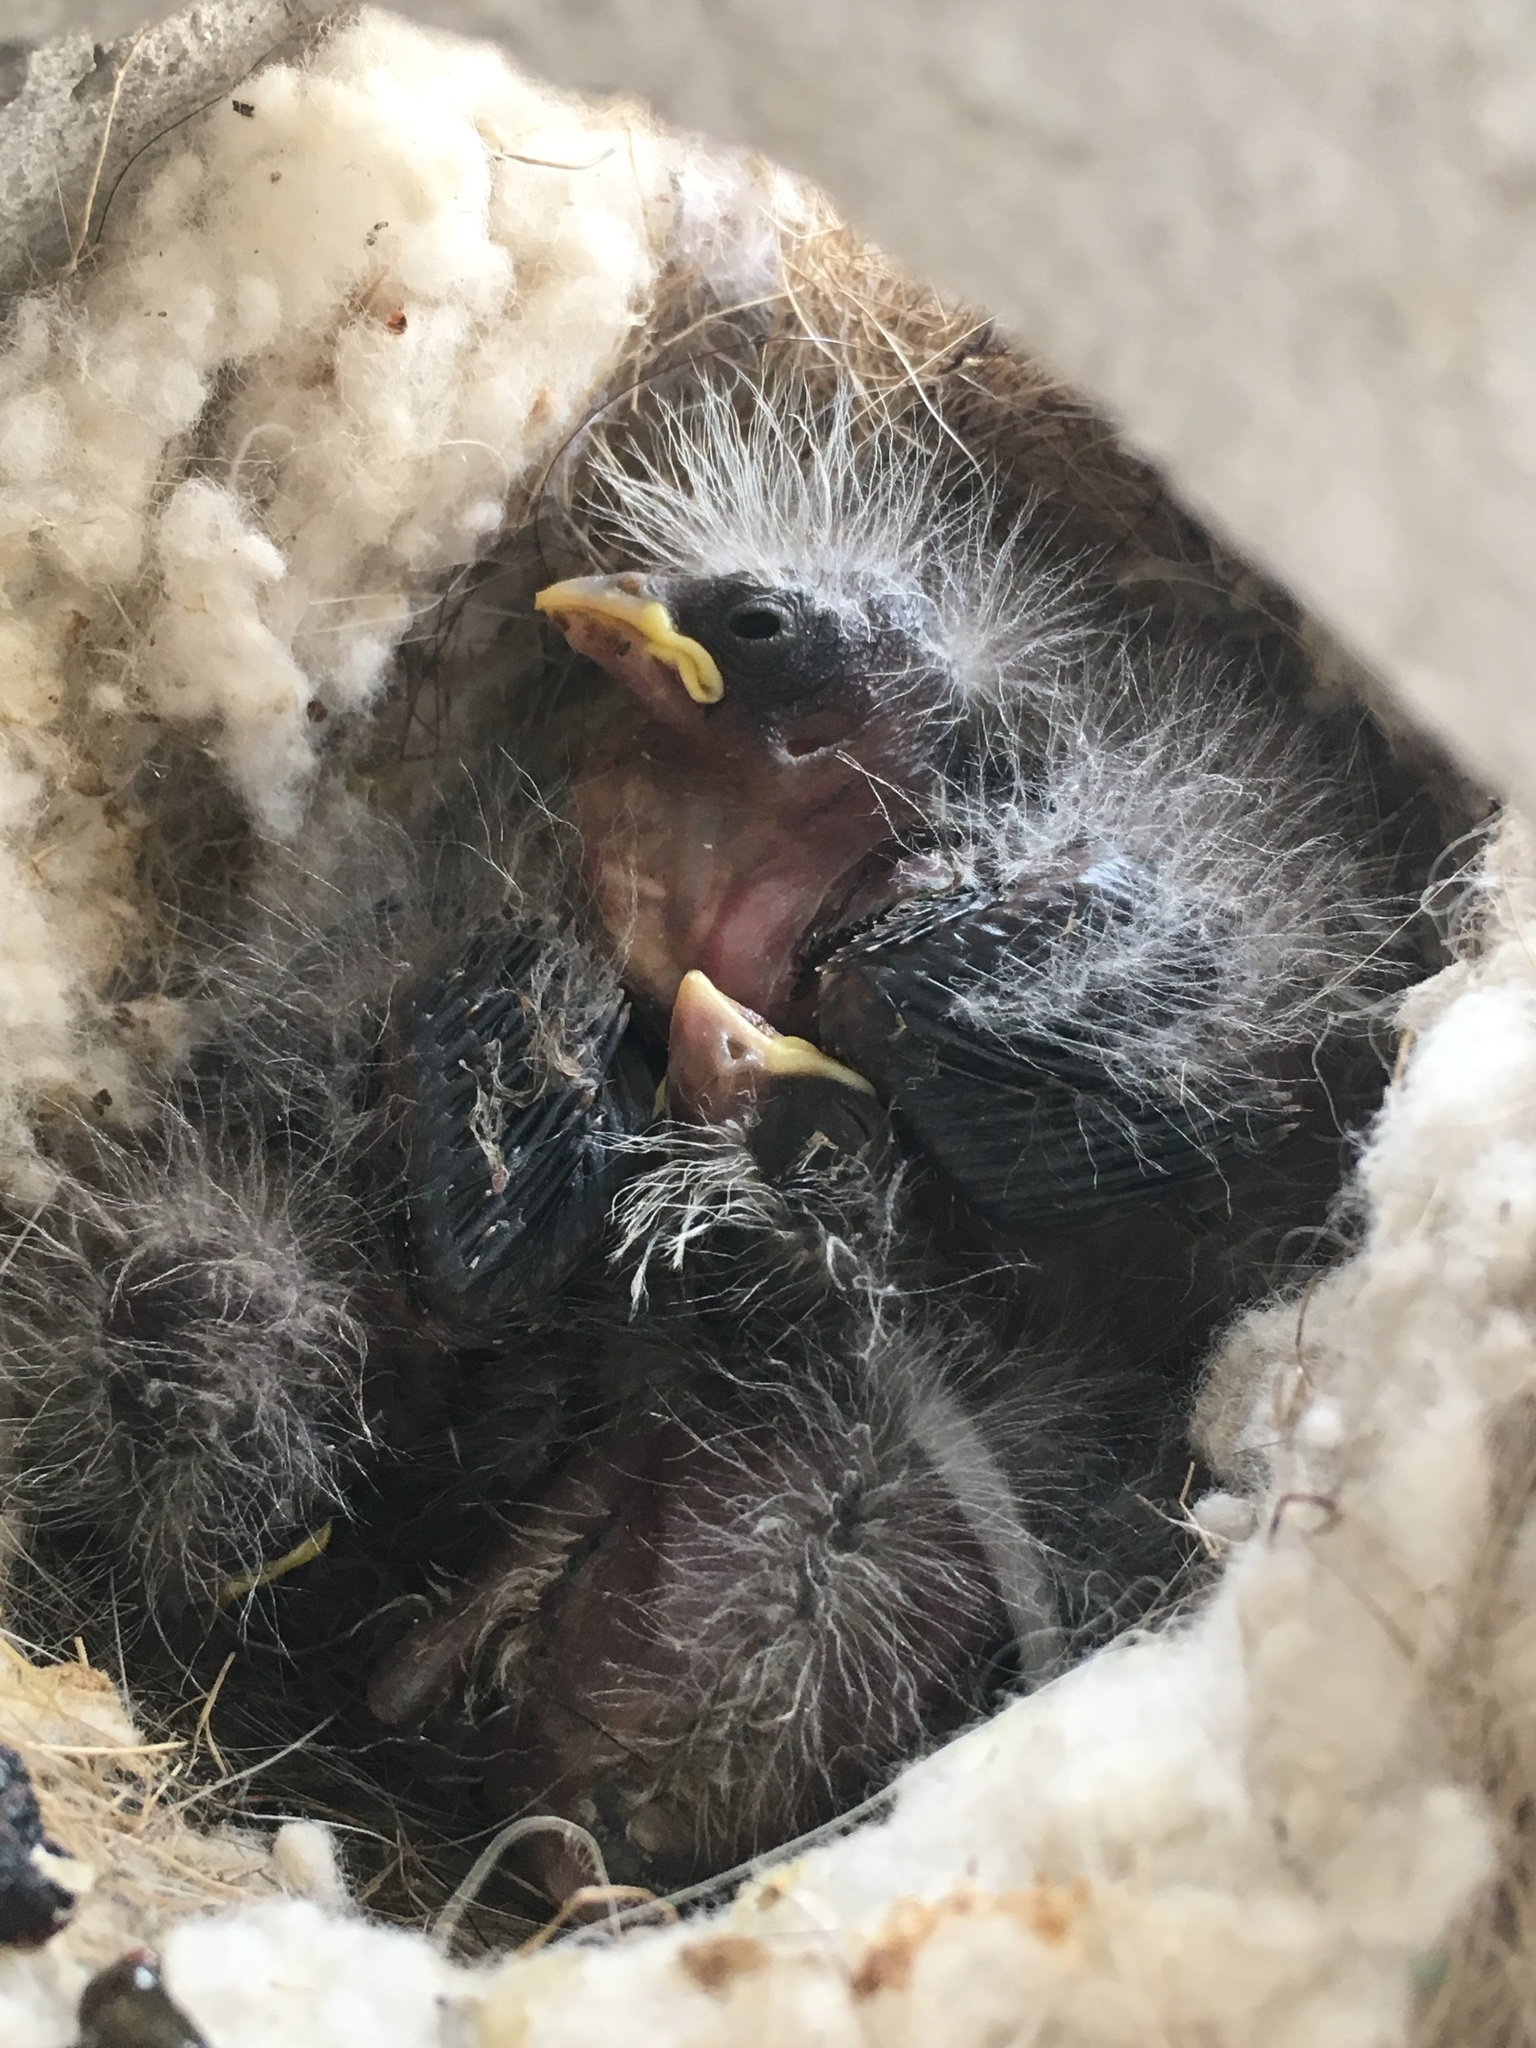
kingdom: Animalia
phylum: Chordata
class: Aves
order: Passeriformes
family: Fringillidae
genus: Haemorhous
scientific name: Haemorhous mexicanus
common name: House finch
